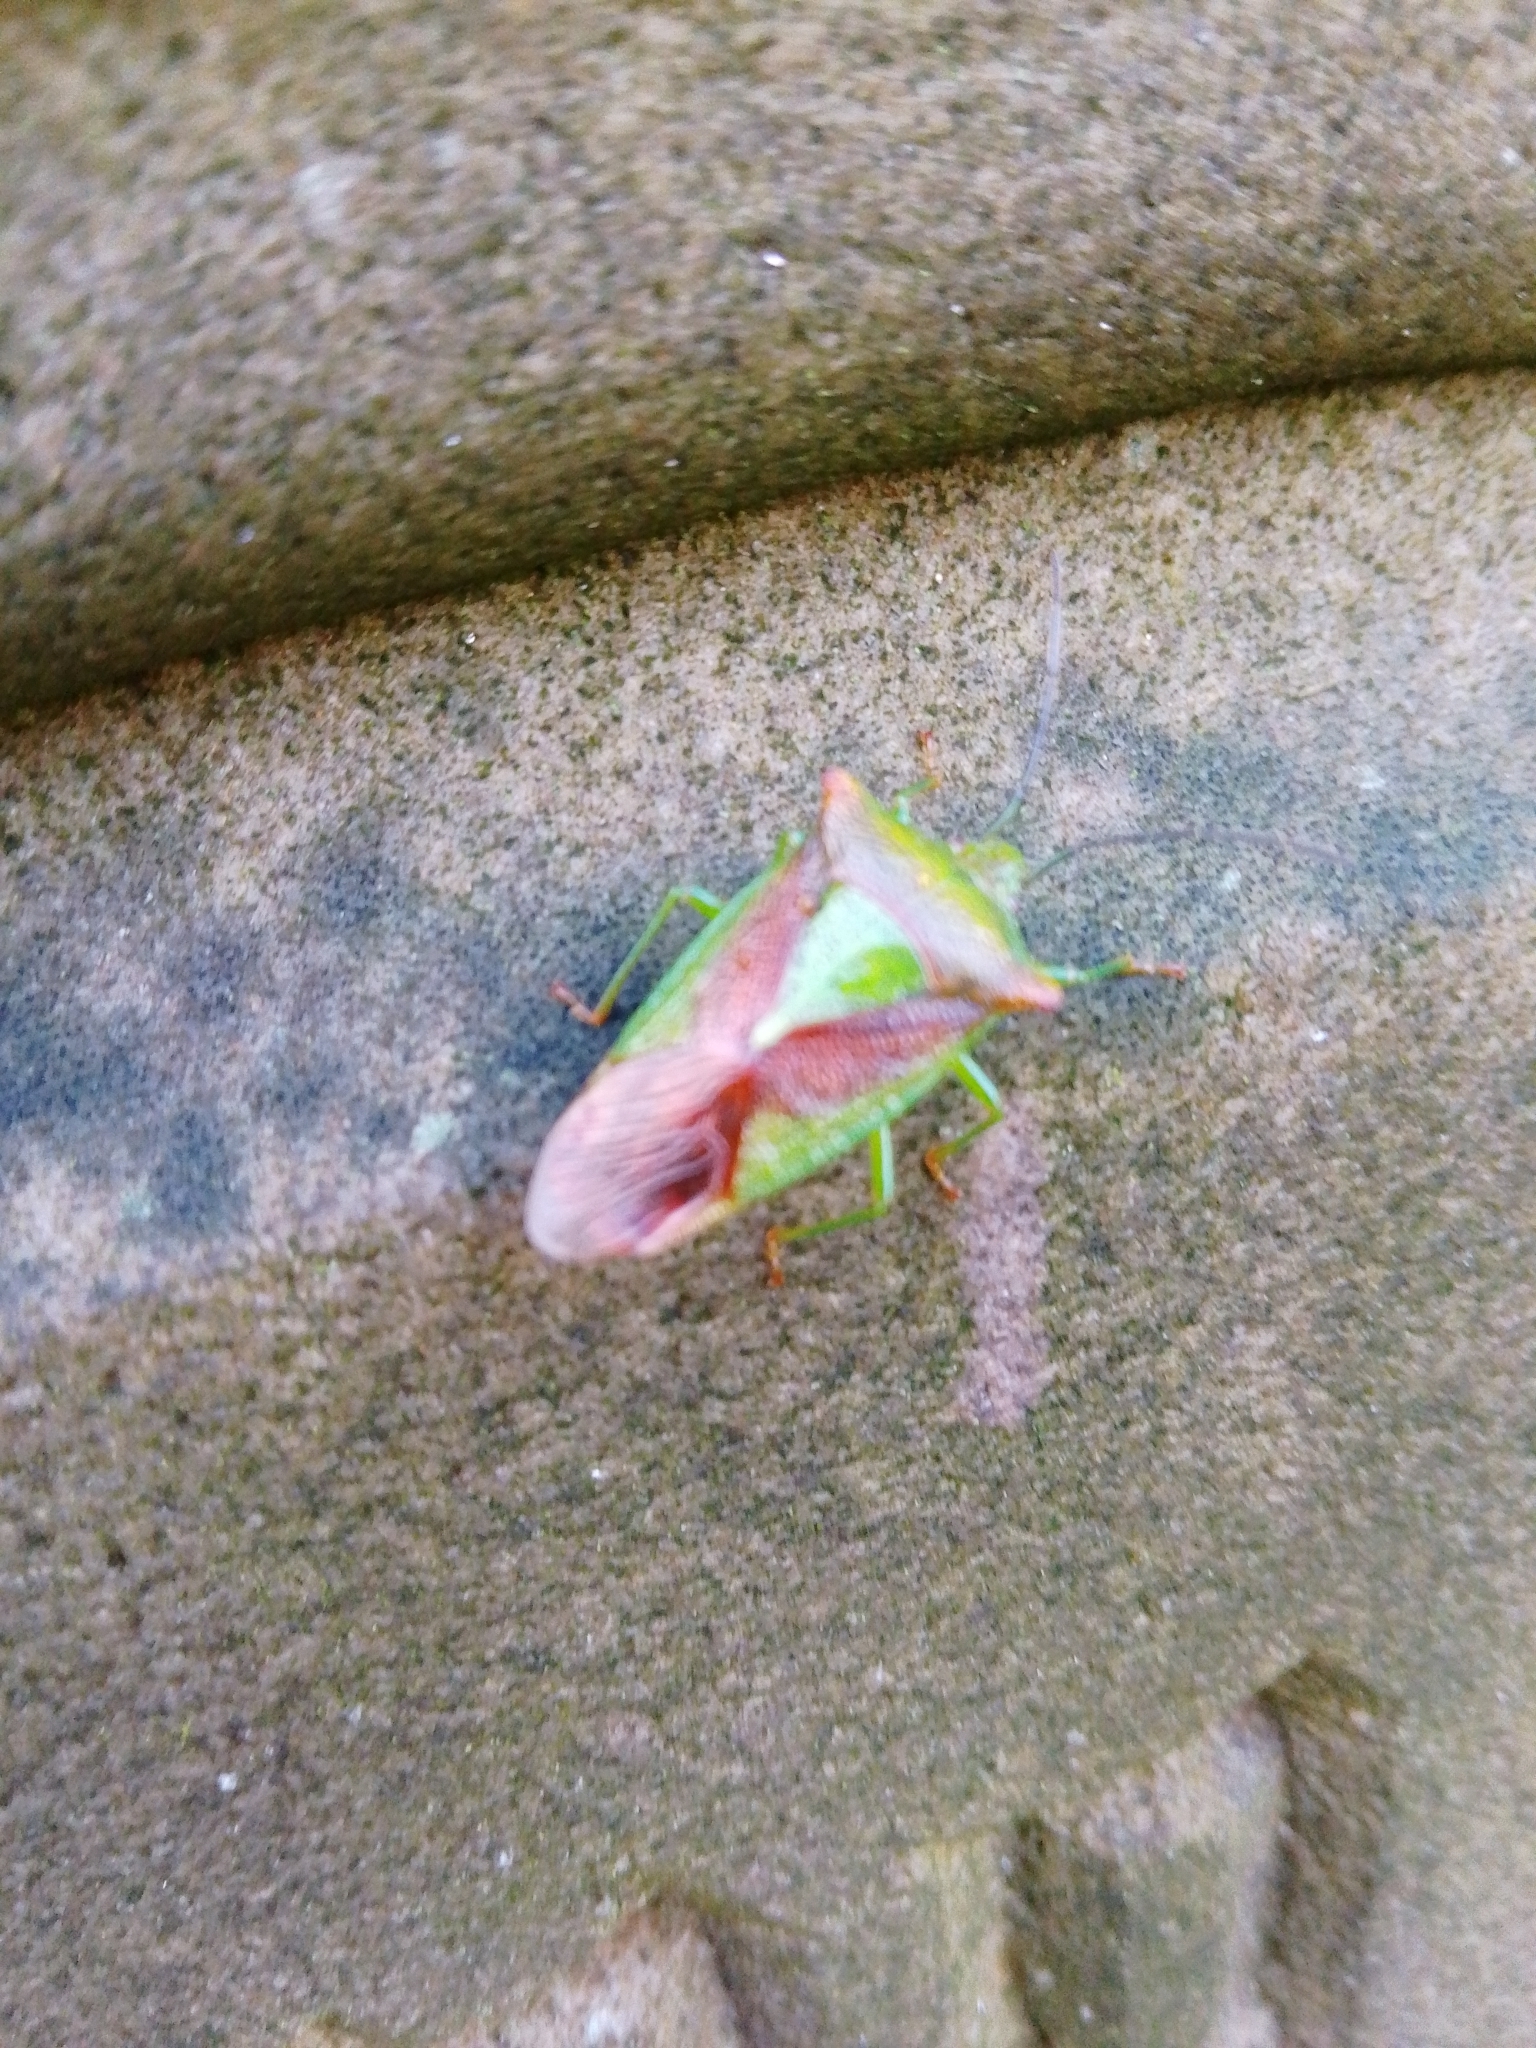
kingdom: Animalia
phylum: Arthropoda
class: Insecta
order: Hemiptera
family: Acanthosomatidae
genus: Acanthosoma
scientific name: Acanthosoma haemorrhoidale
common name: Hawthorn shieldbug
